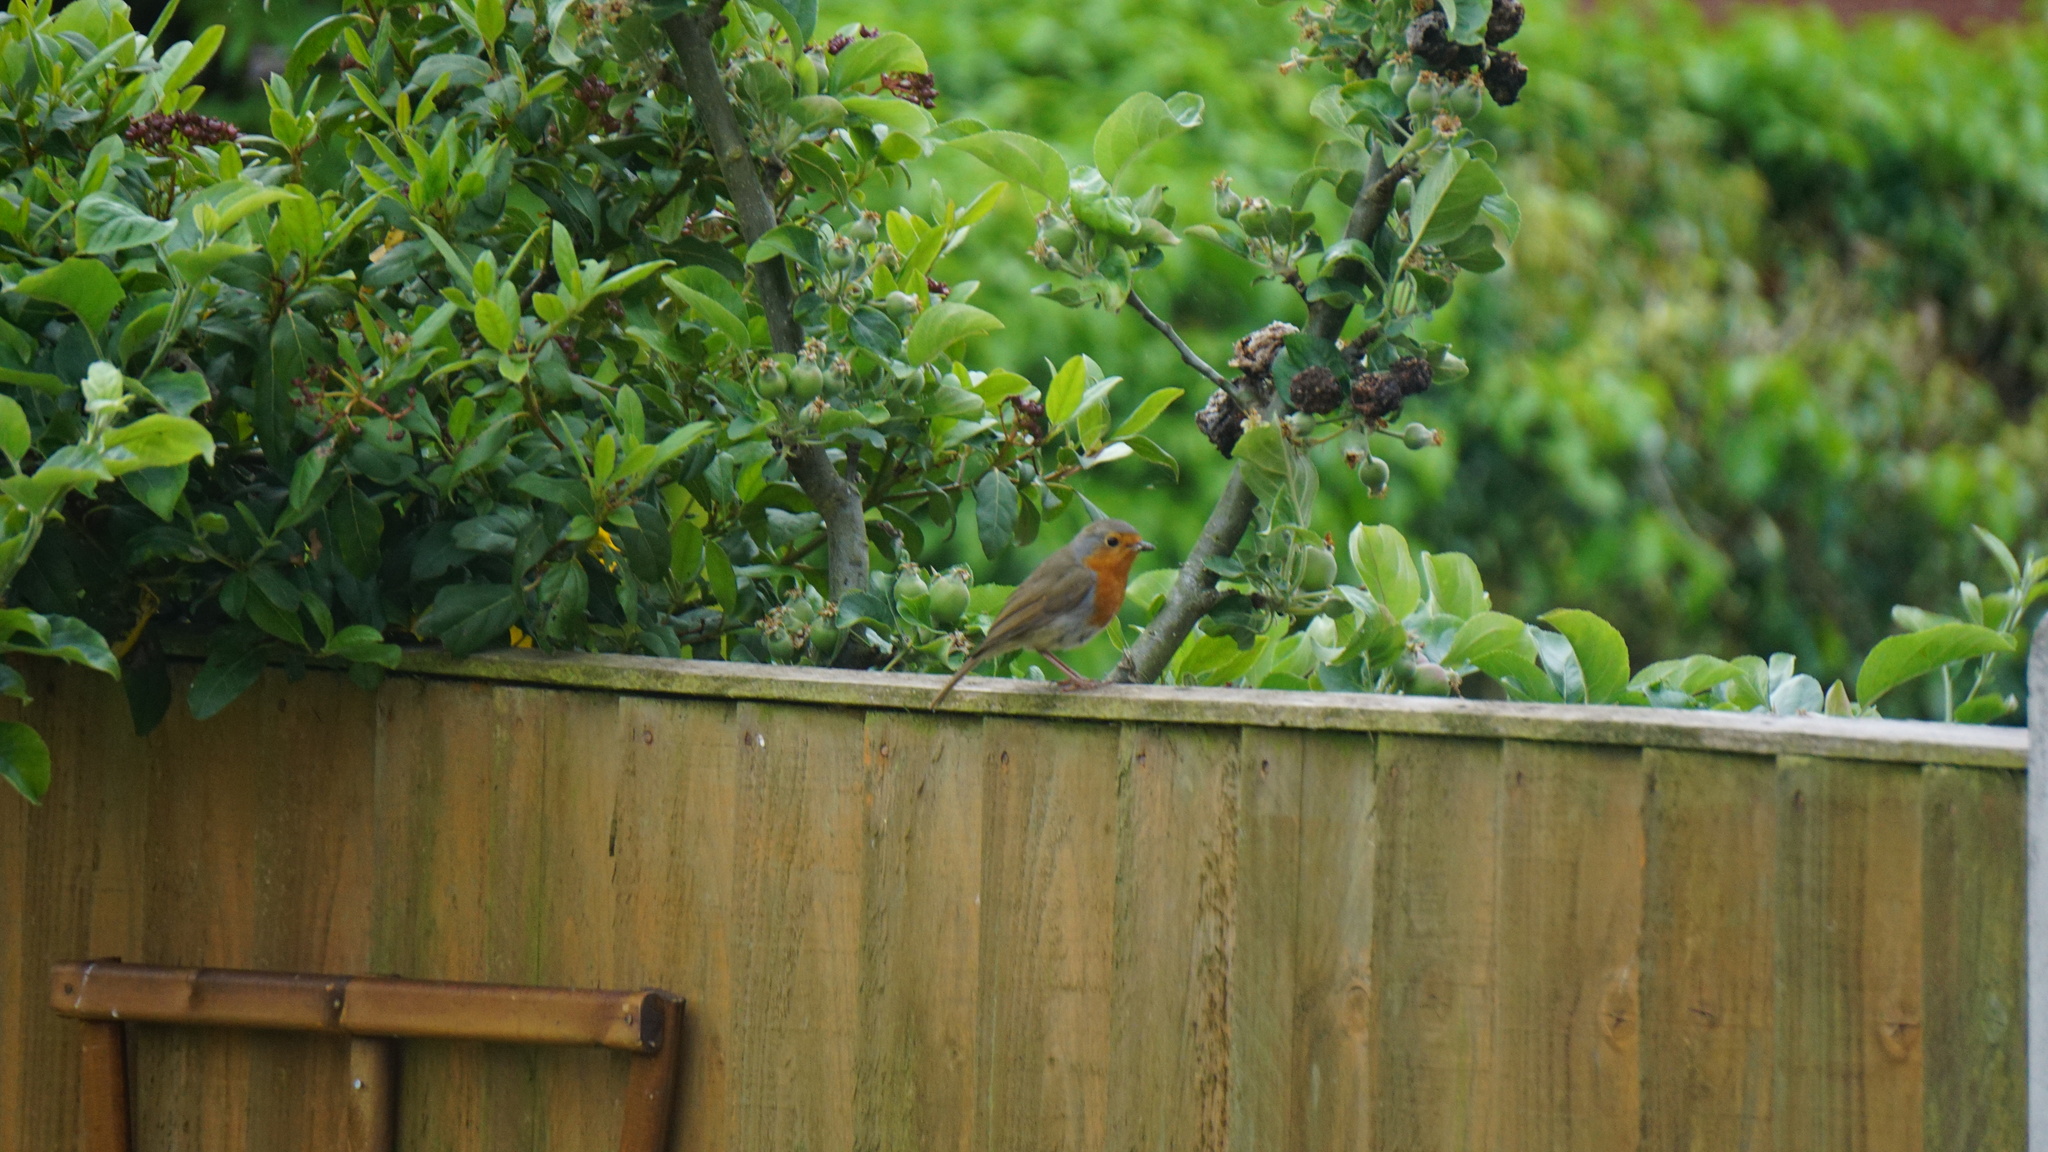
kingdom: Animalia
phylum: Chordata
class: Aves
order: Passeriformes
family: Muscicapidae
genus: Erithacus
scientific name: Erithacus rubecula
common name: European robin
